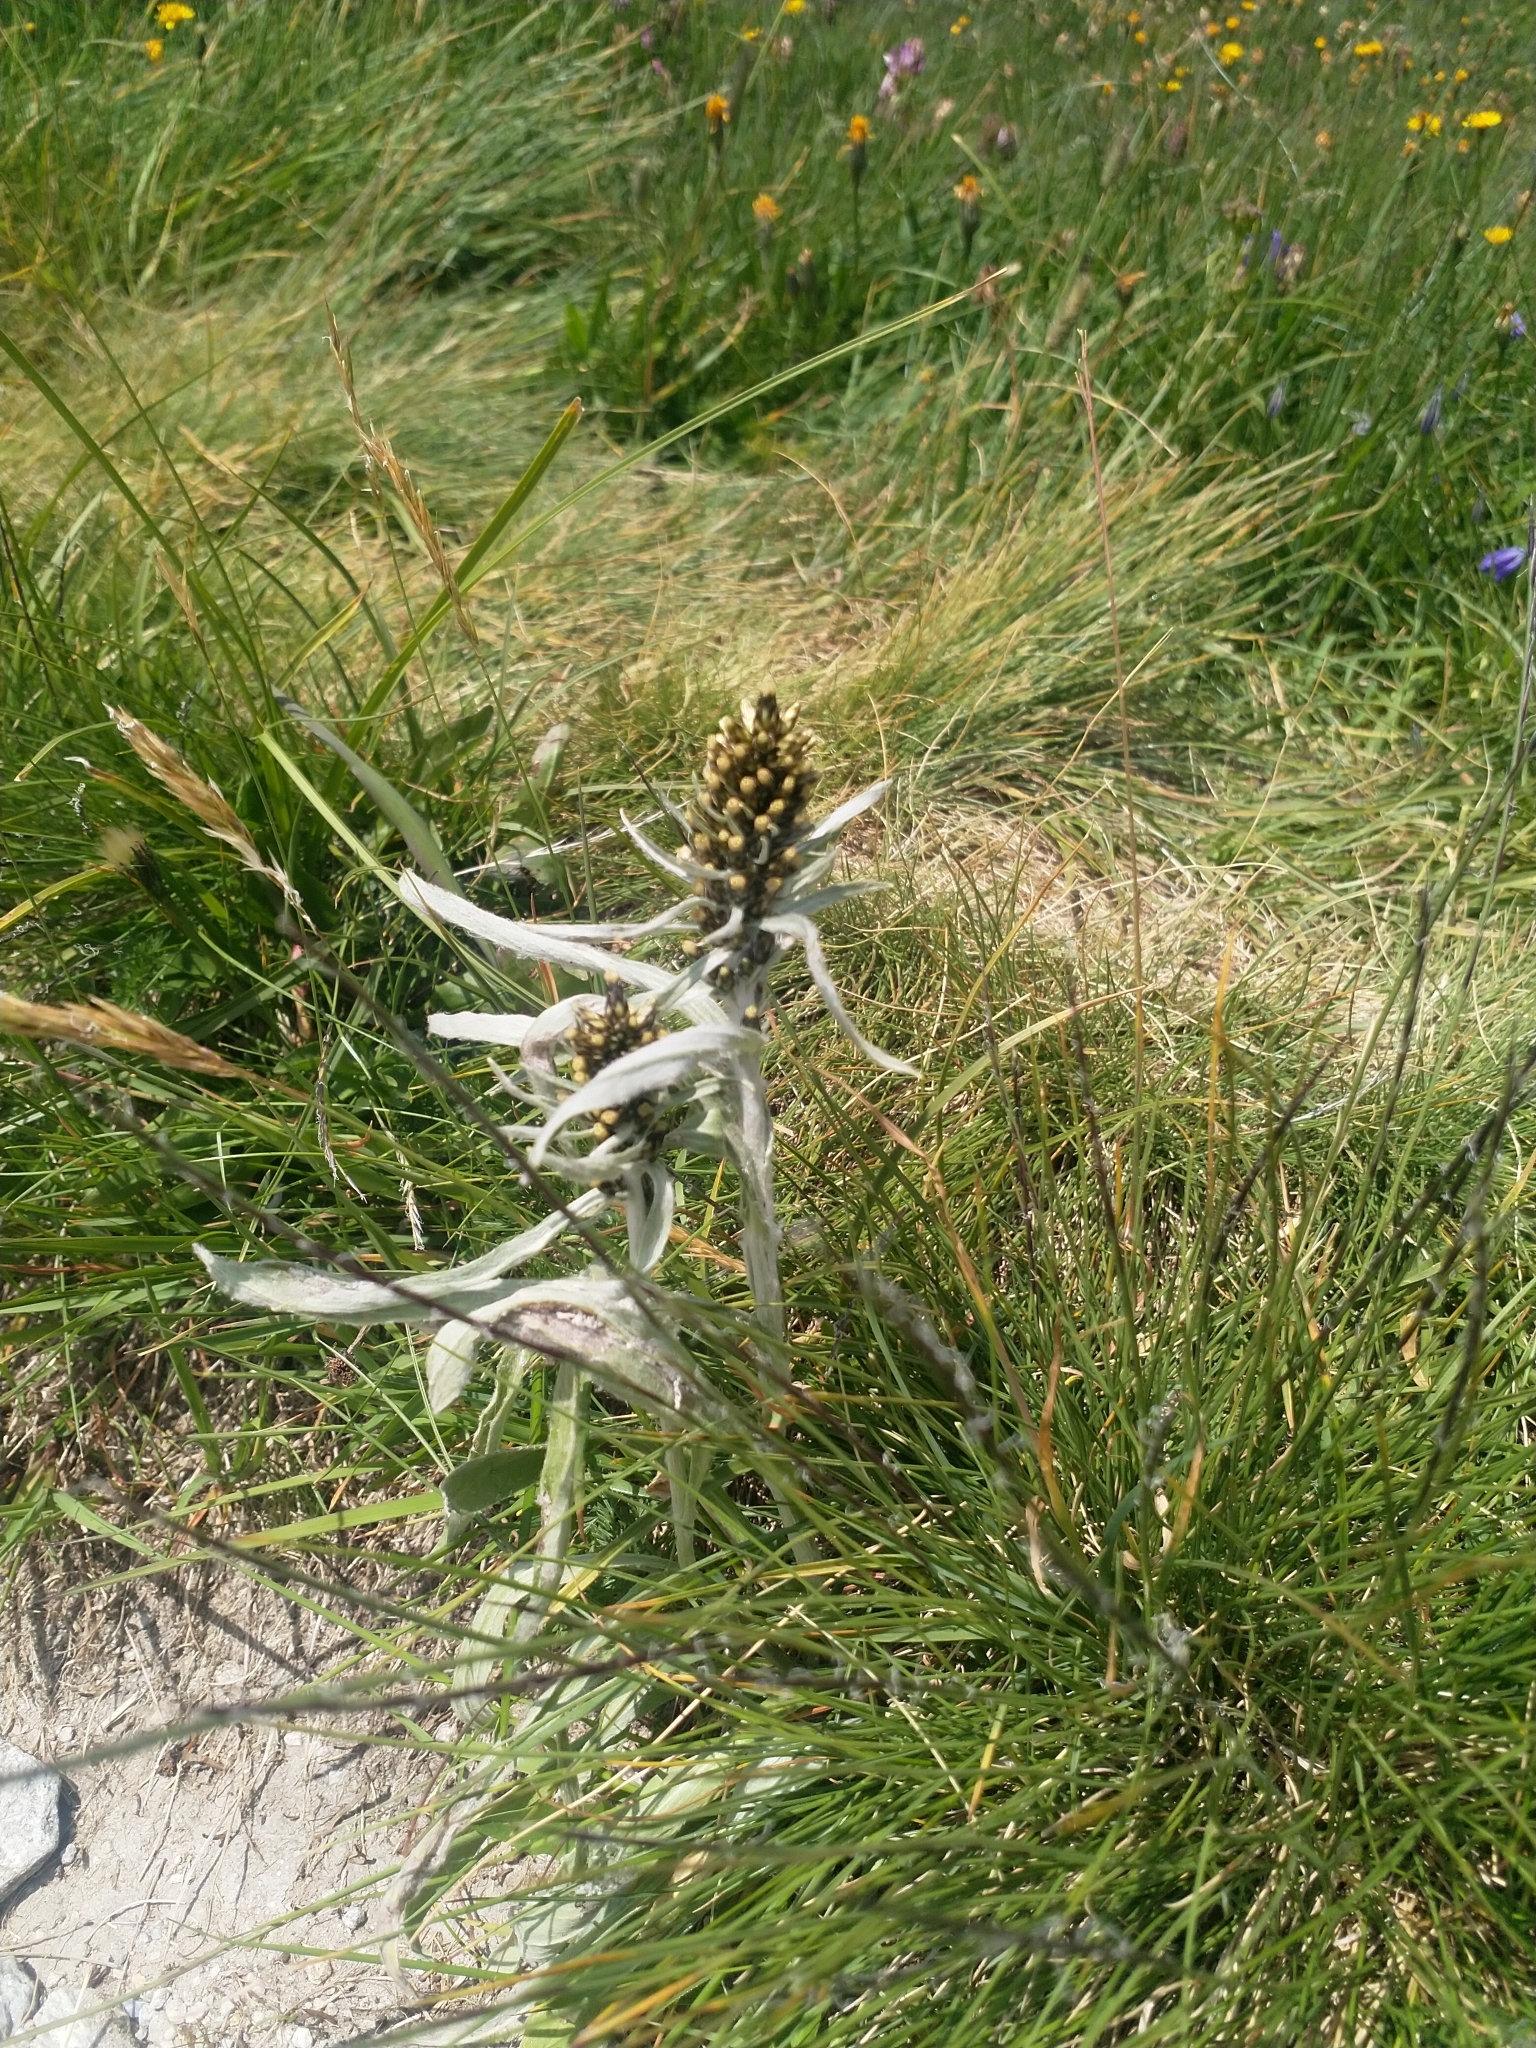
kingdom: Plantae
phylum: Tracheophyta
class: Magnoliopsida
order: Asterales
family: Asteraceae
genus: Omalotheca
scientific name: Omalotheca norvegica
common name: Norwegian arctic-cudweed
